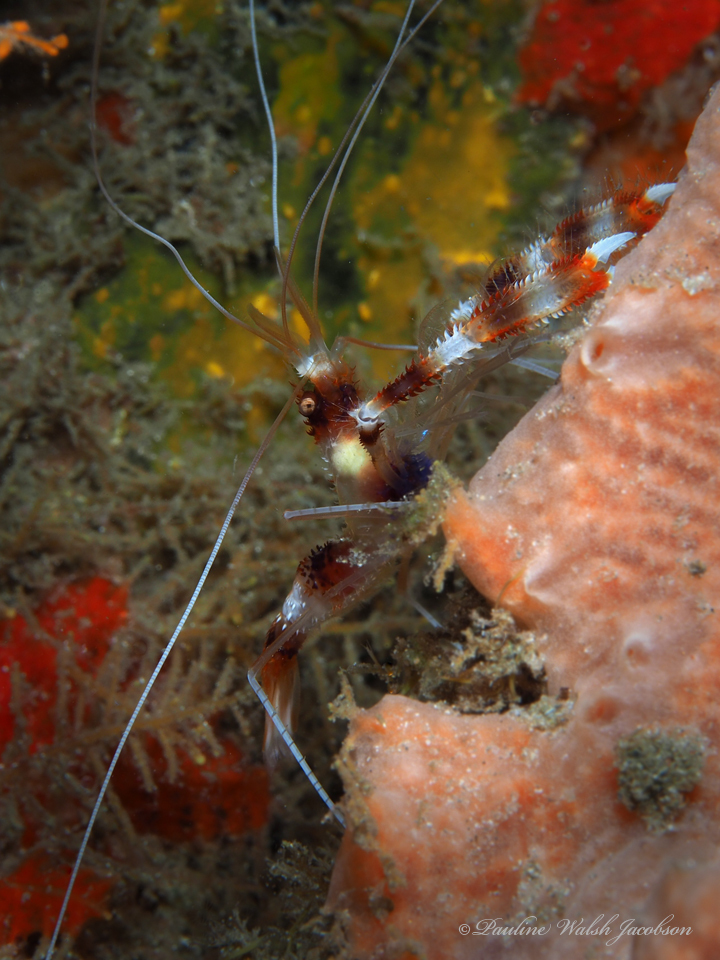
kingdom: Animalia
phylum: Arthropoda
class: Malacostraca
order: Decapoda
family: Stenopodidae
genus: Stenopus
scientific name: Stenopus hispidus
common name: Banded coral shrimp
